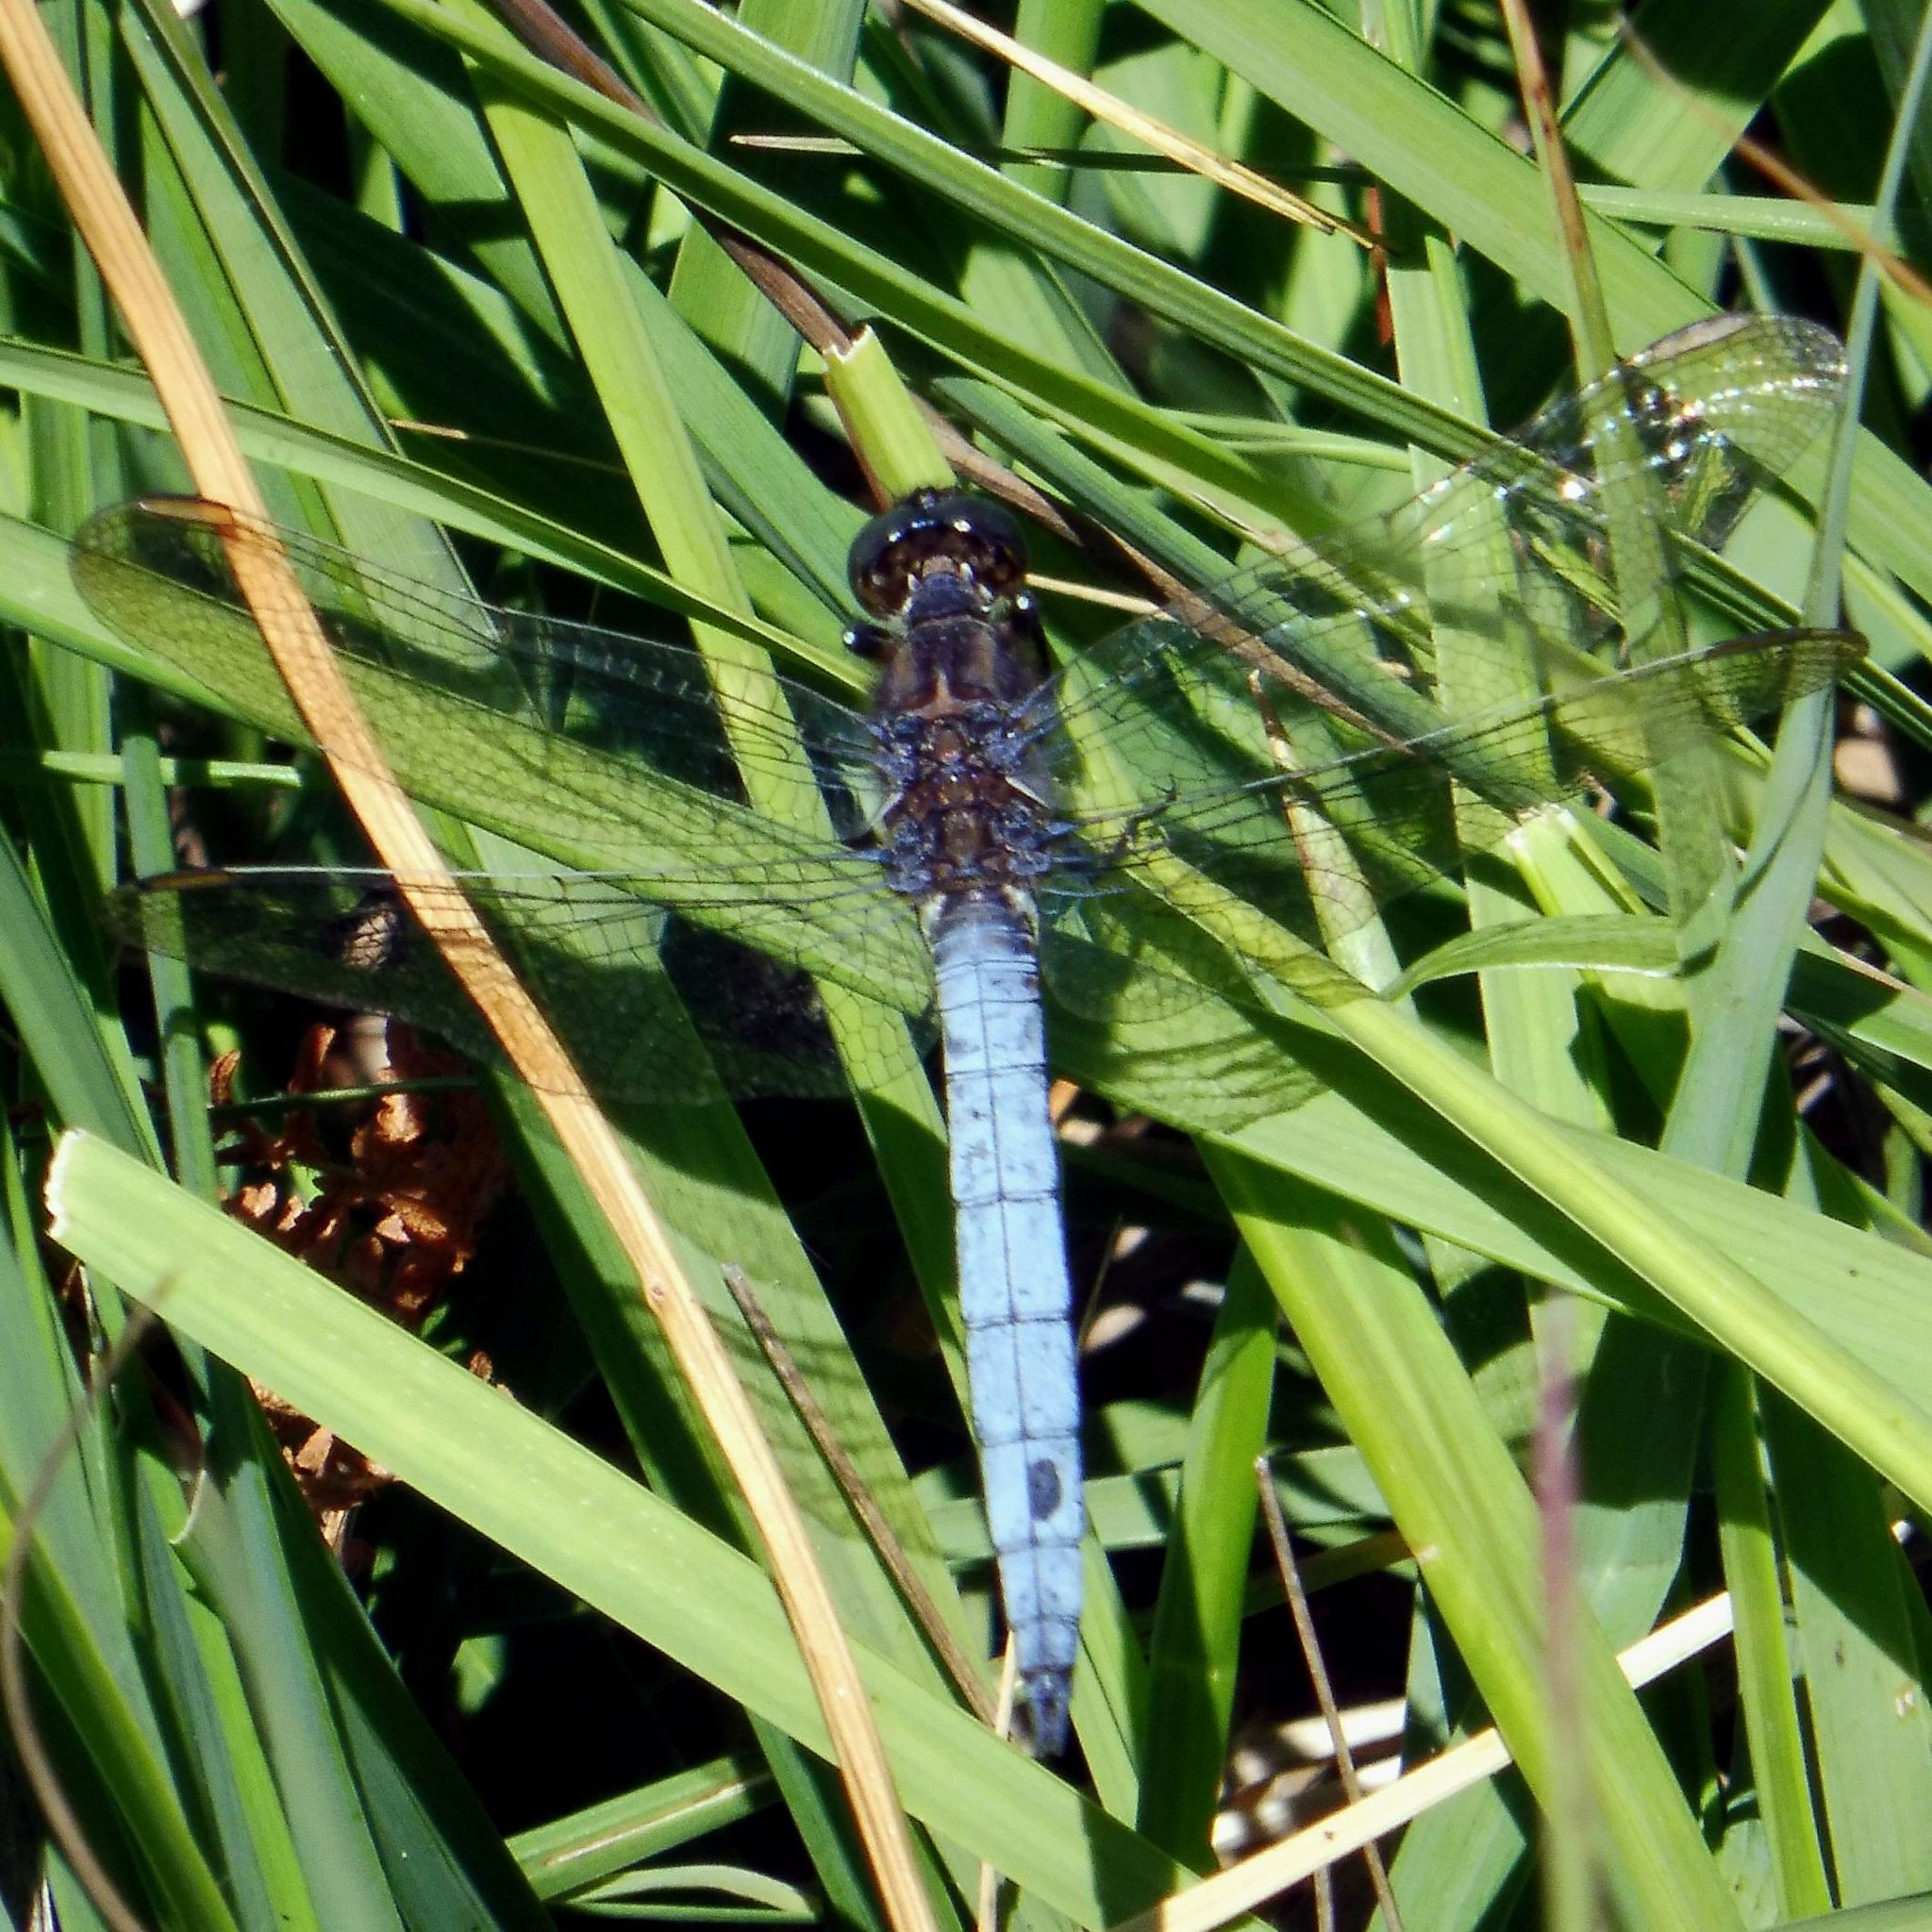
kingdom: Animalia
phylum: Arthropoda
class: Insecta
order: Odonata
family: Libellulidae
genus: Orthetrum
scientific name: Orthetrum coerulescens
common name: Keeled skimmer
